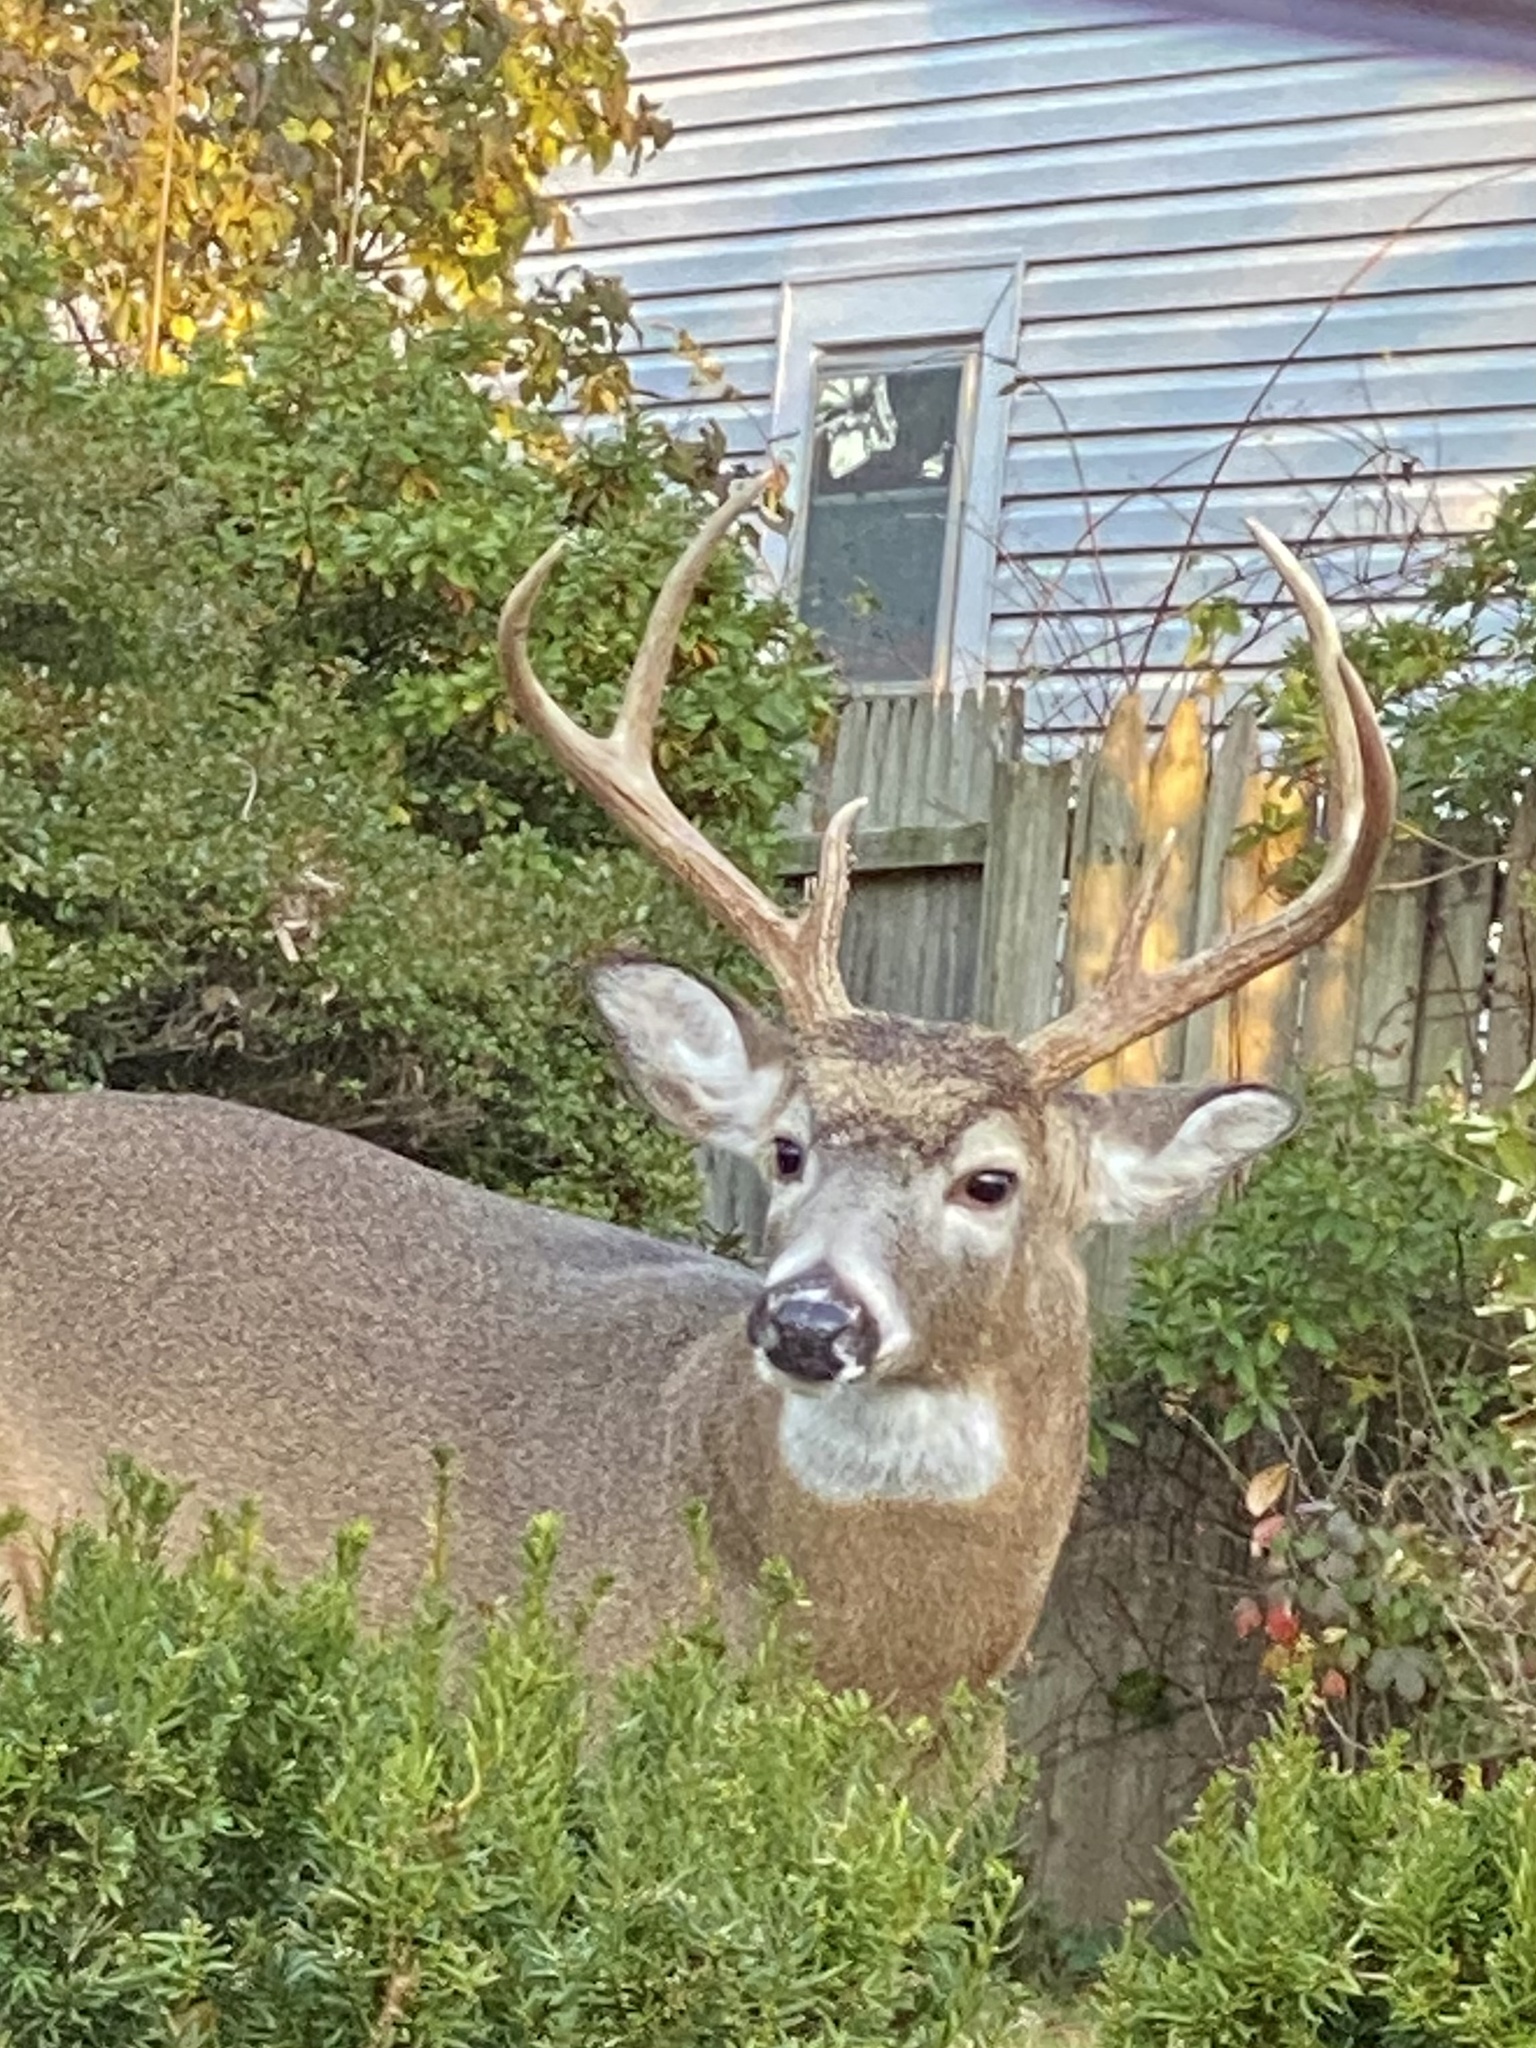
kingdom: Animalia
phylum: Chordata
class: Mammalia
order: Artiodactyla
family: Cervidae
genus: Odocoileus
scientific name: Odocoileus virginianus
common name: White-tailed deer
